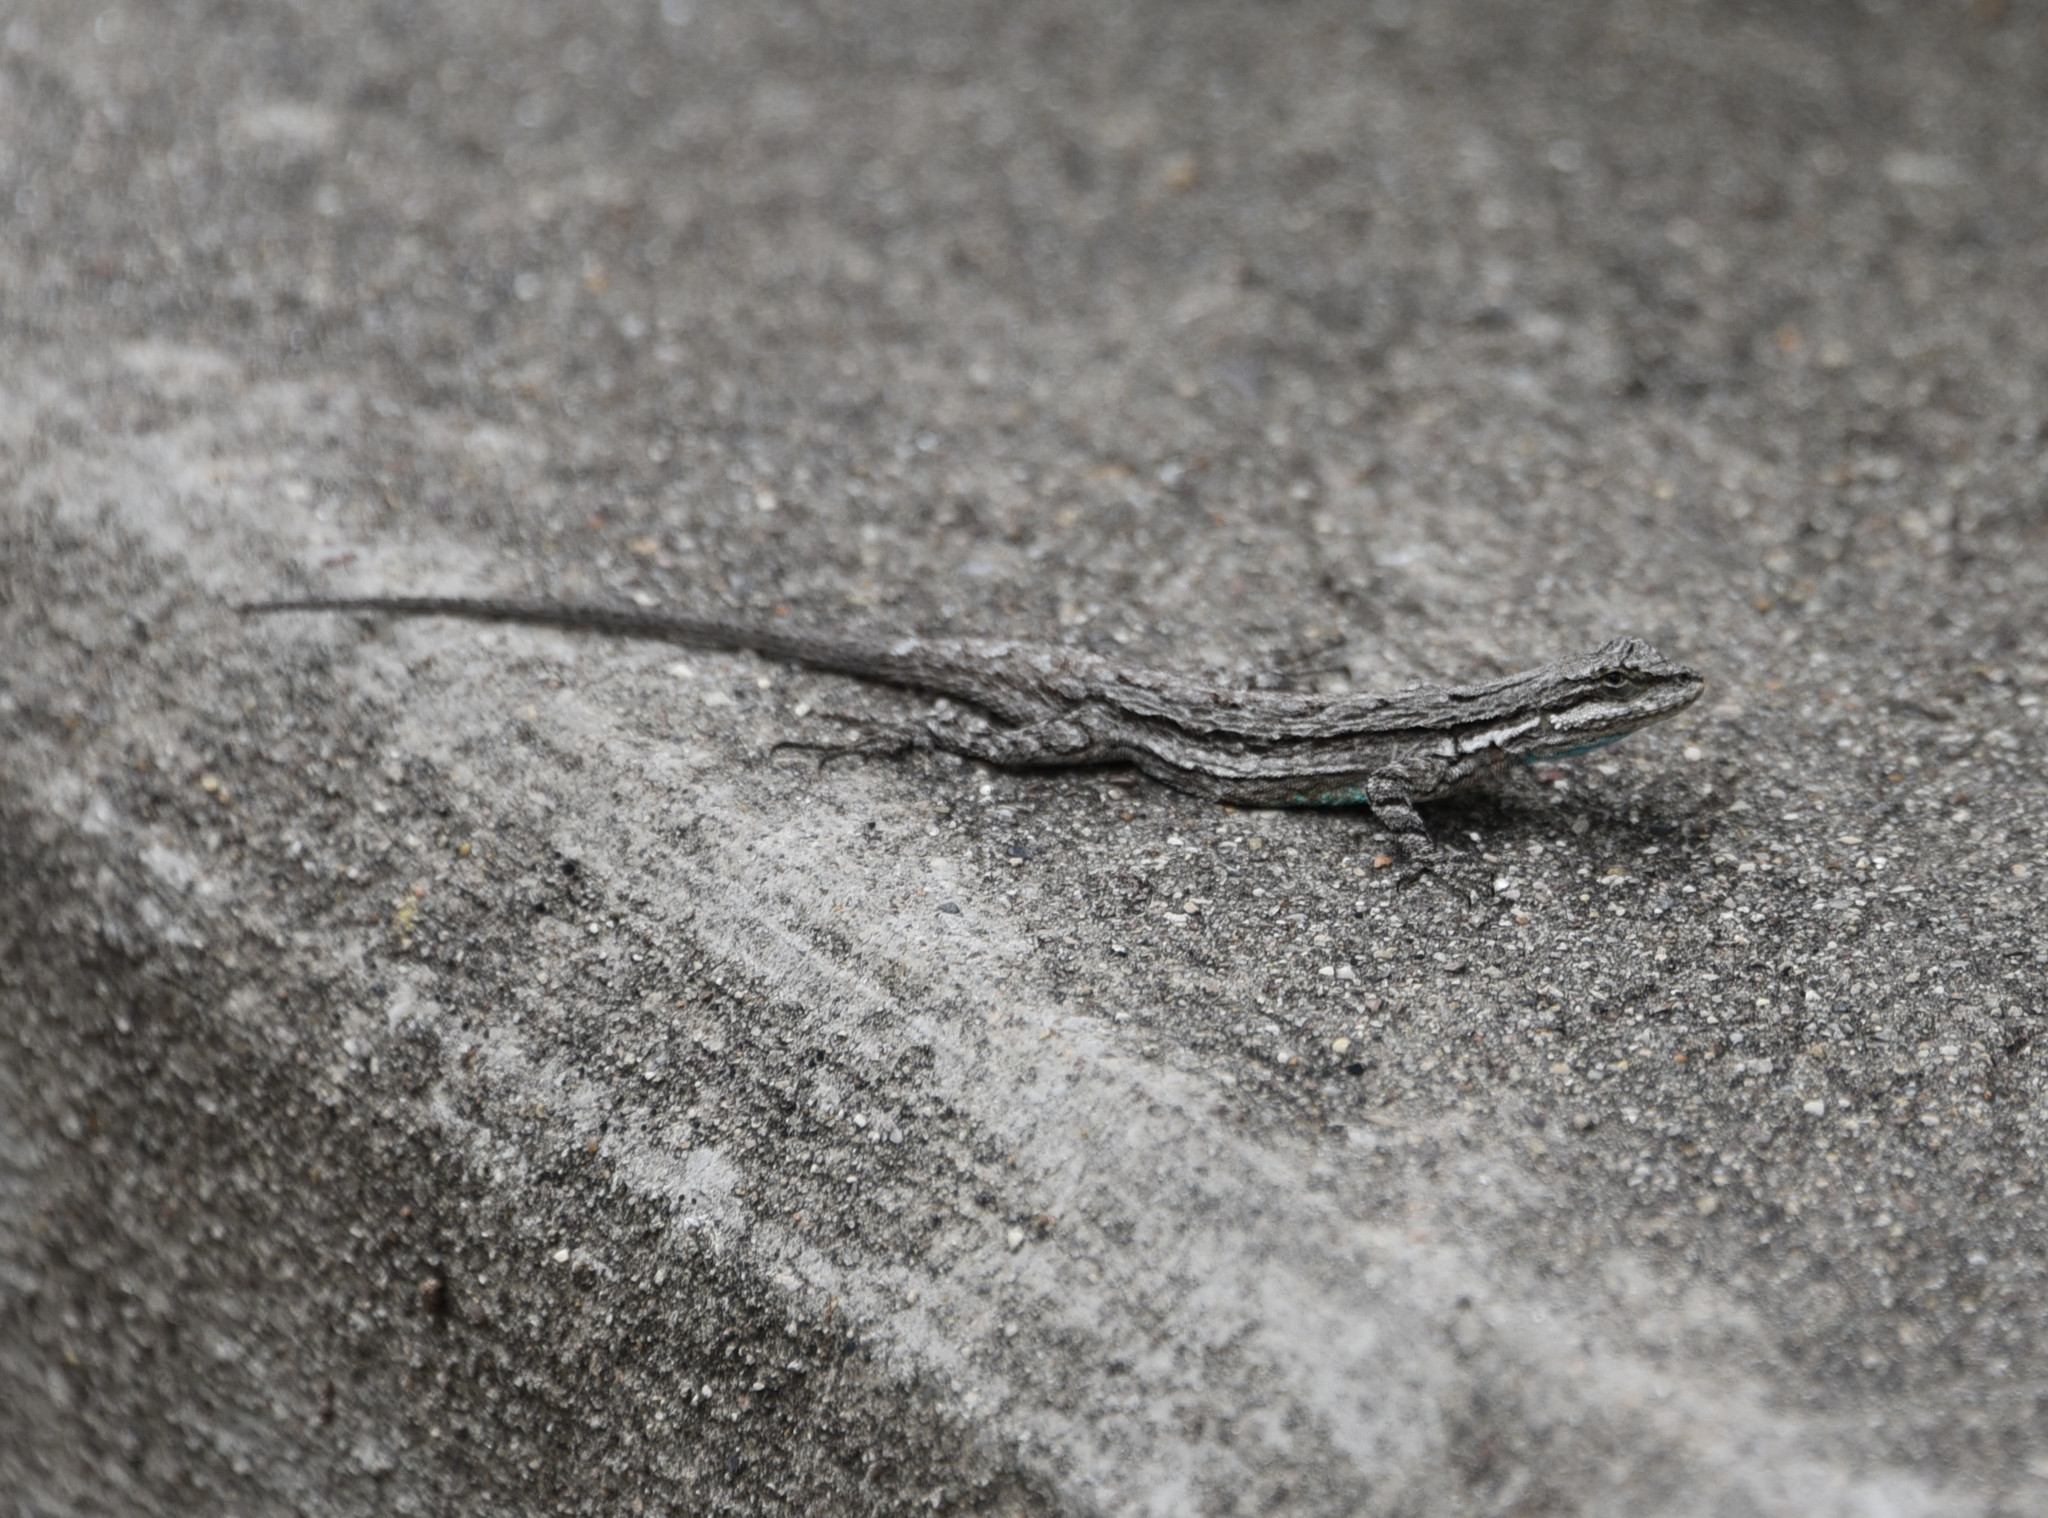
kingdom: Animalia
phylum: Chordata
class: Squamata
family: Phrynosomatidae
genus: Urosaurus
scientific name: Urosaurus ornatus
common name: Ornate tree lizard
